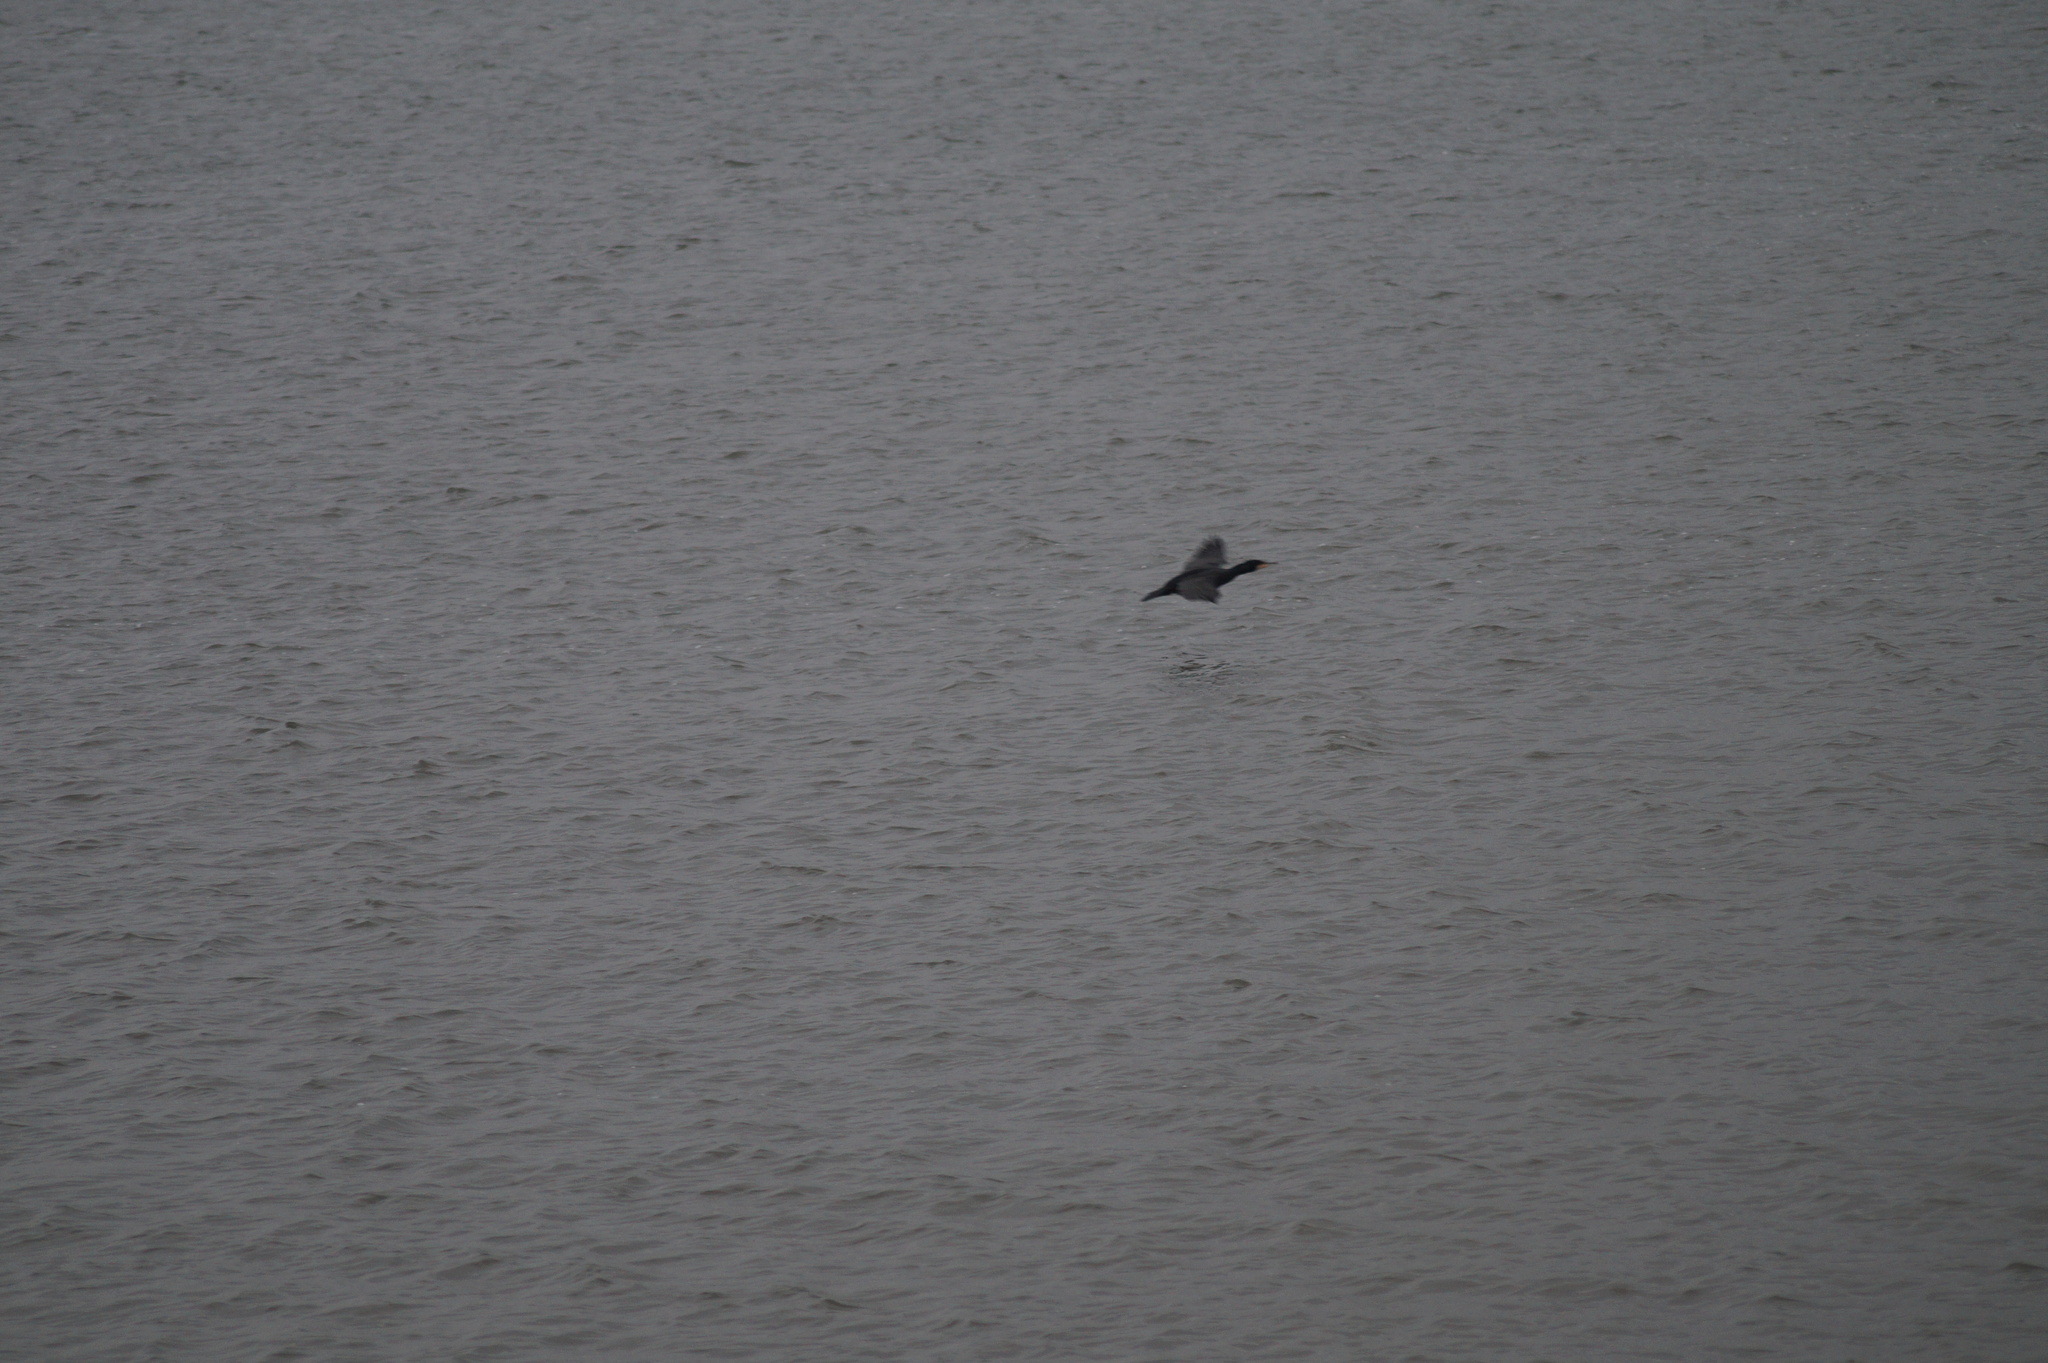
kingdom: Animalia
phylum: Chordata
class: Aves
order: Suliformes
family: Phalacrocoracidae
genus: Phalacrocorax
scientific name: Phalacrocorax carbo
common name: Great cormorant
